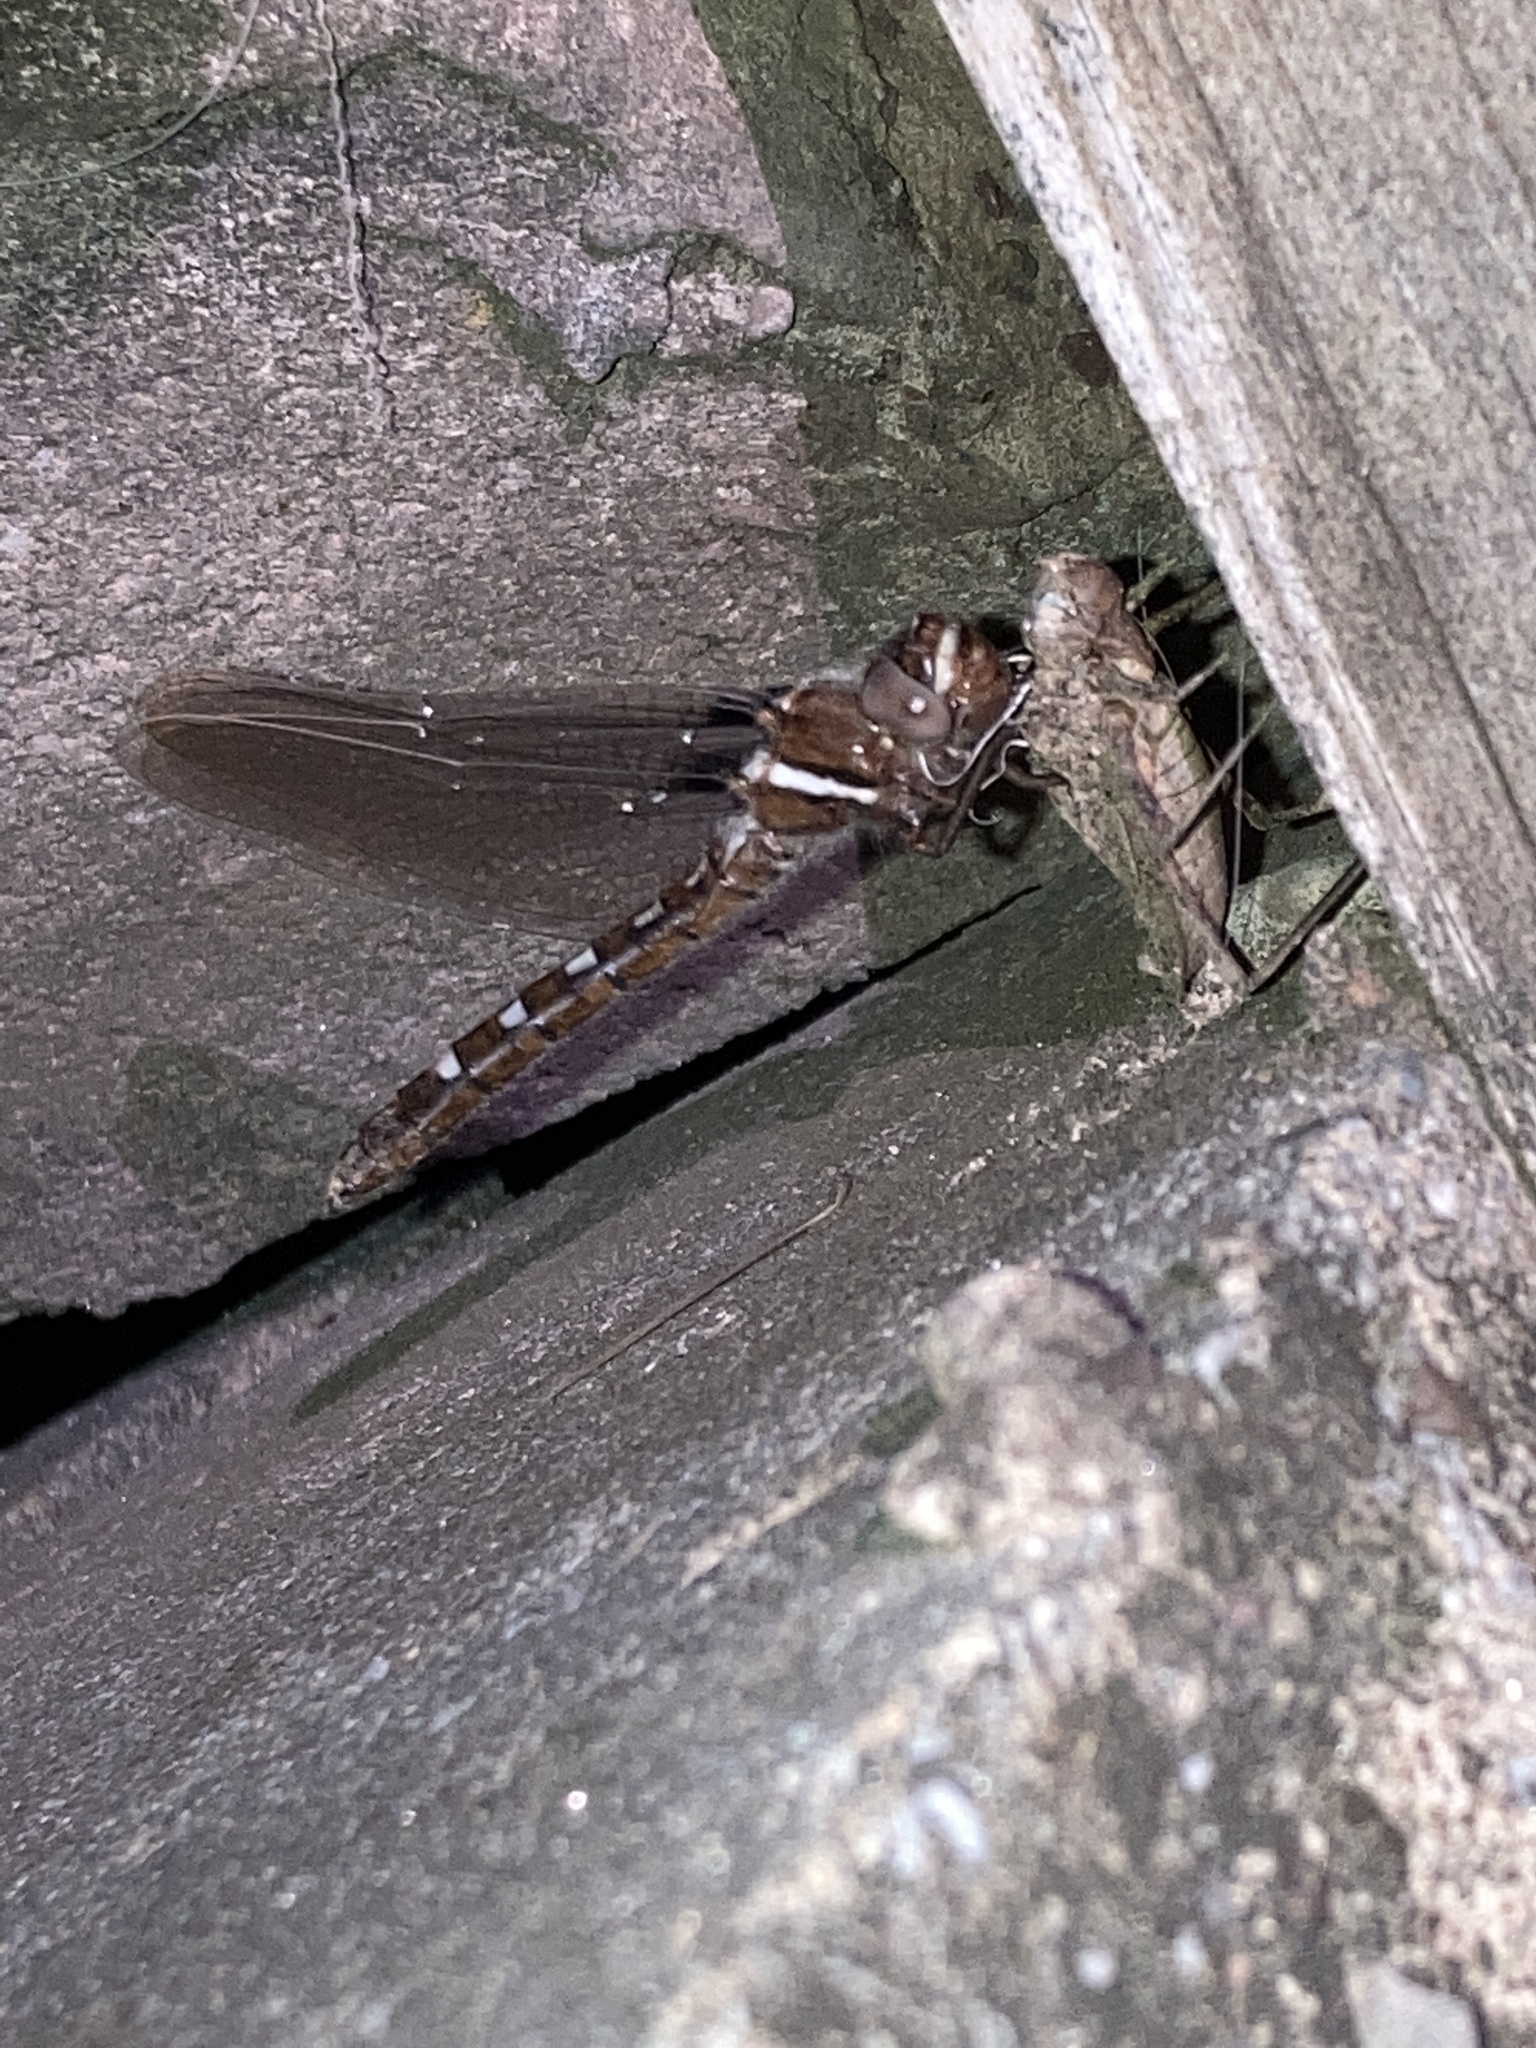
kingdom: Animalia
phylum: Arthropoda
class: Insecta
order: Odonata
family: Macromiidae
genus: Didymops
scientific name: Didymops transversa
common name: Stream cruiser
